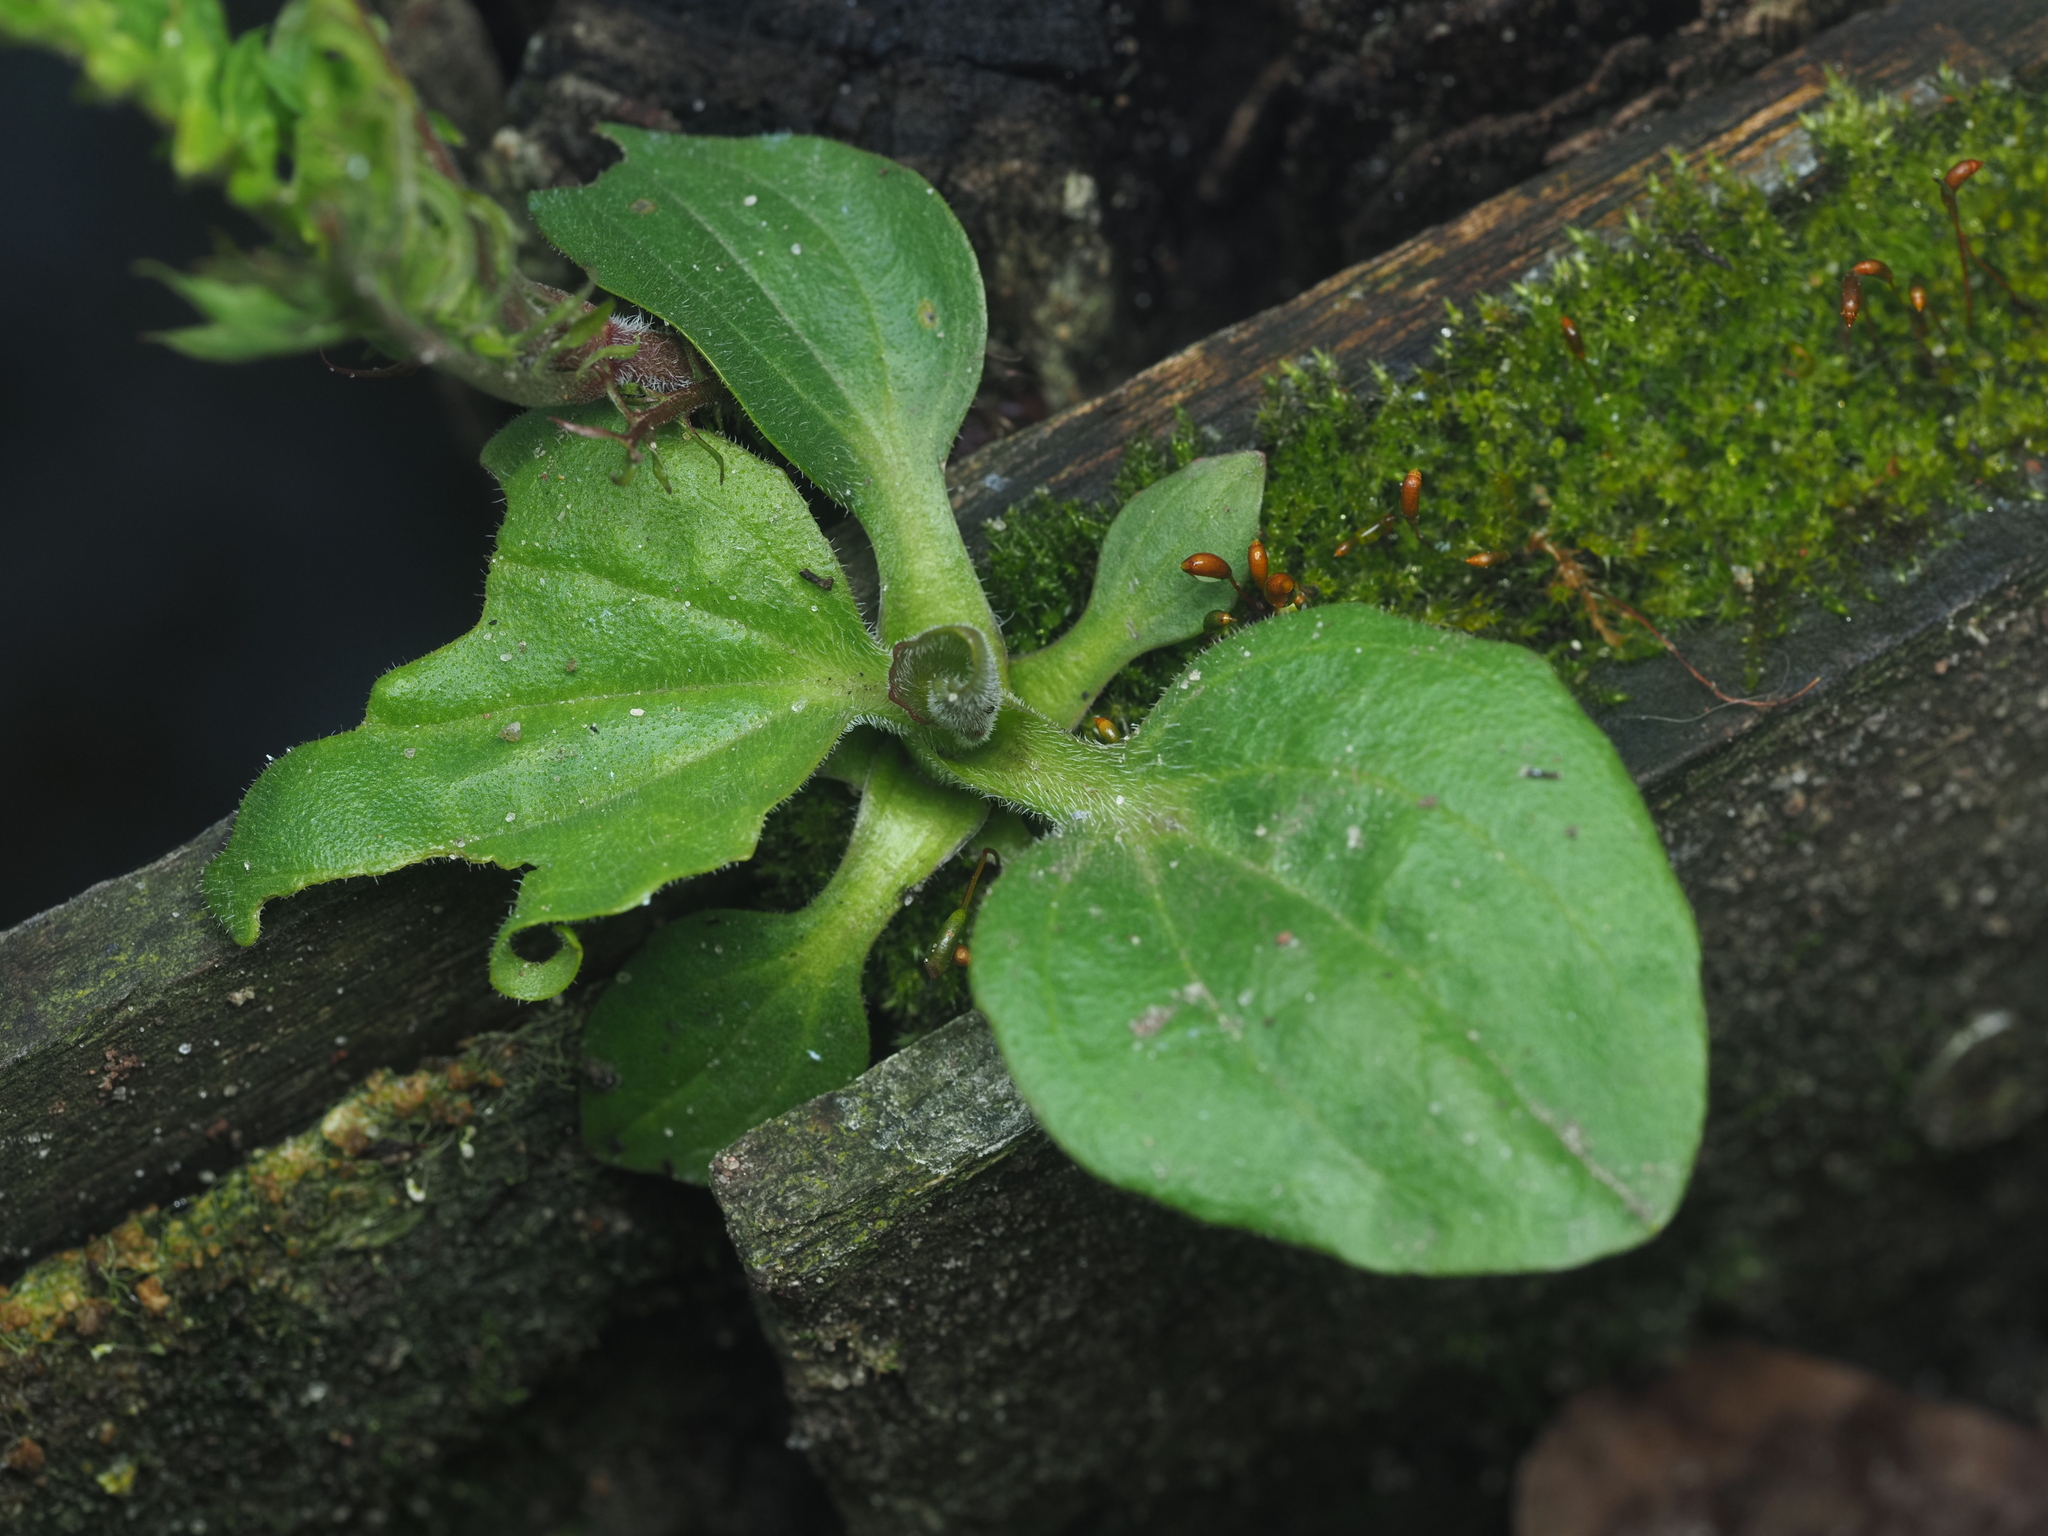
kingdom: Plantae
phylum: Tracheophyta
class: Magnoliopsida
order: Lamiales
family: Plantaginaceae
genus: Plantago
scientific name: Plantago major
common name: Common plantain
